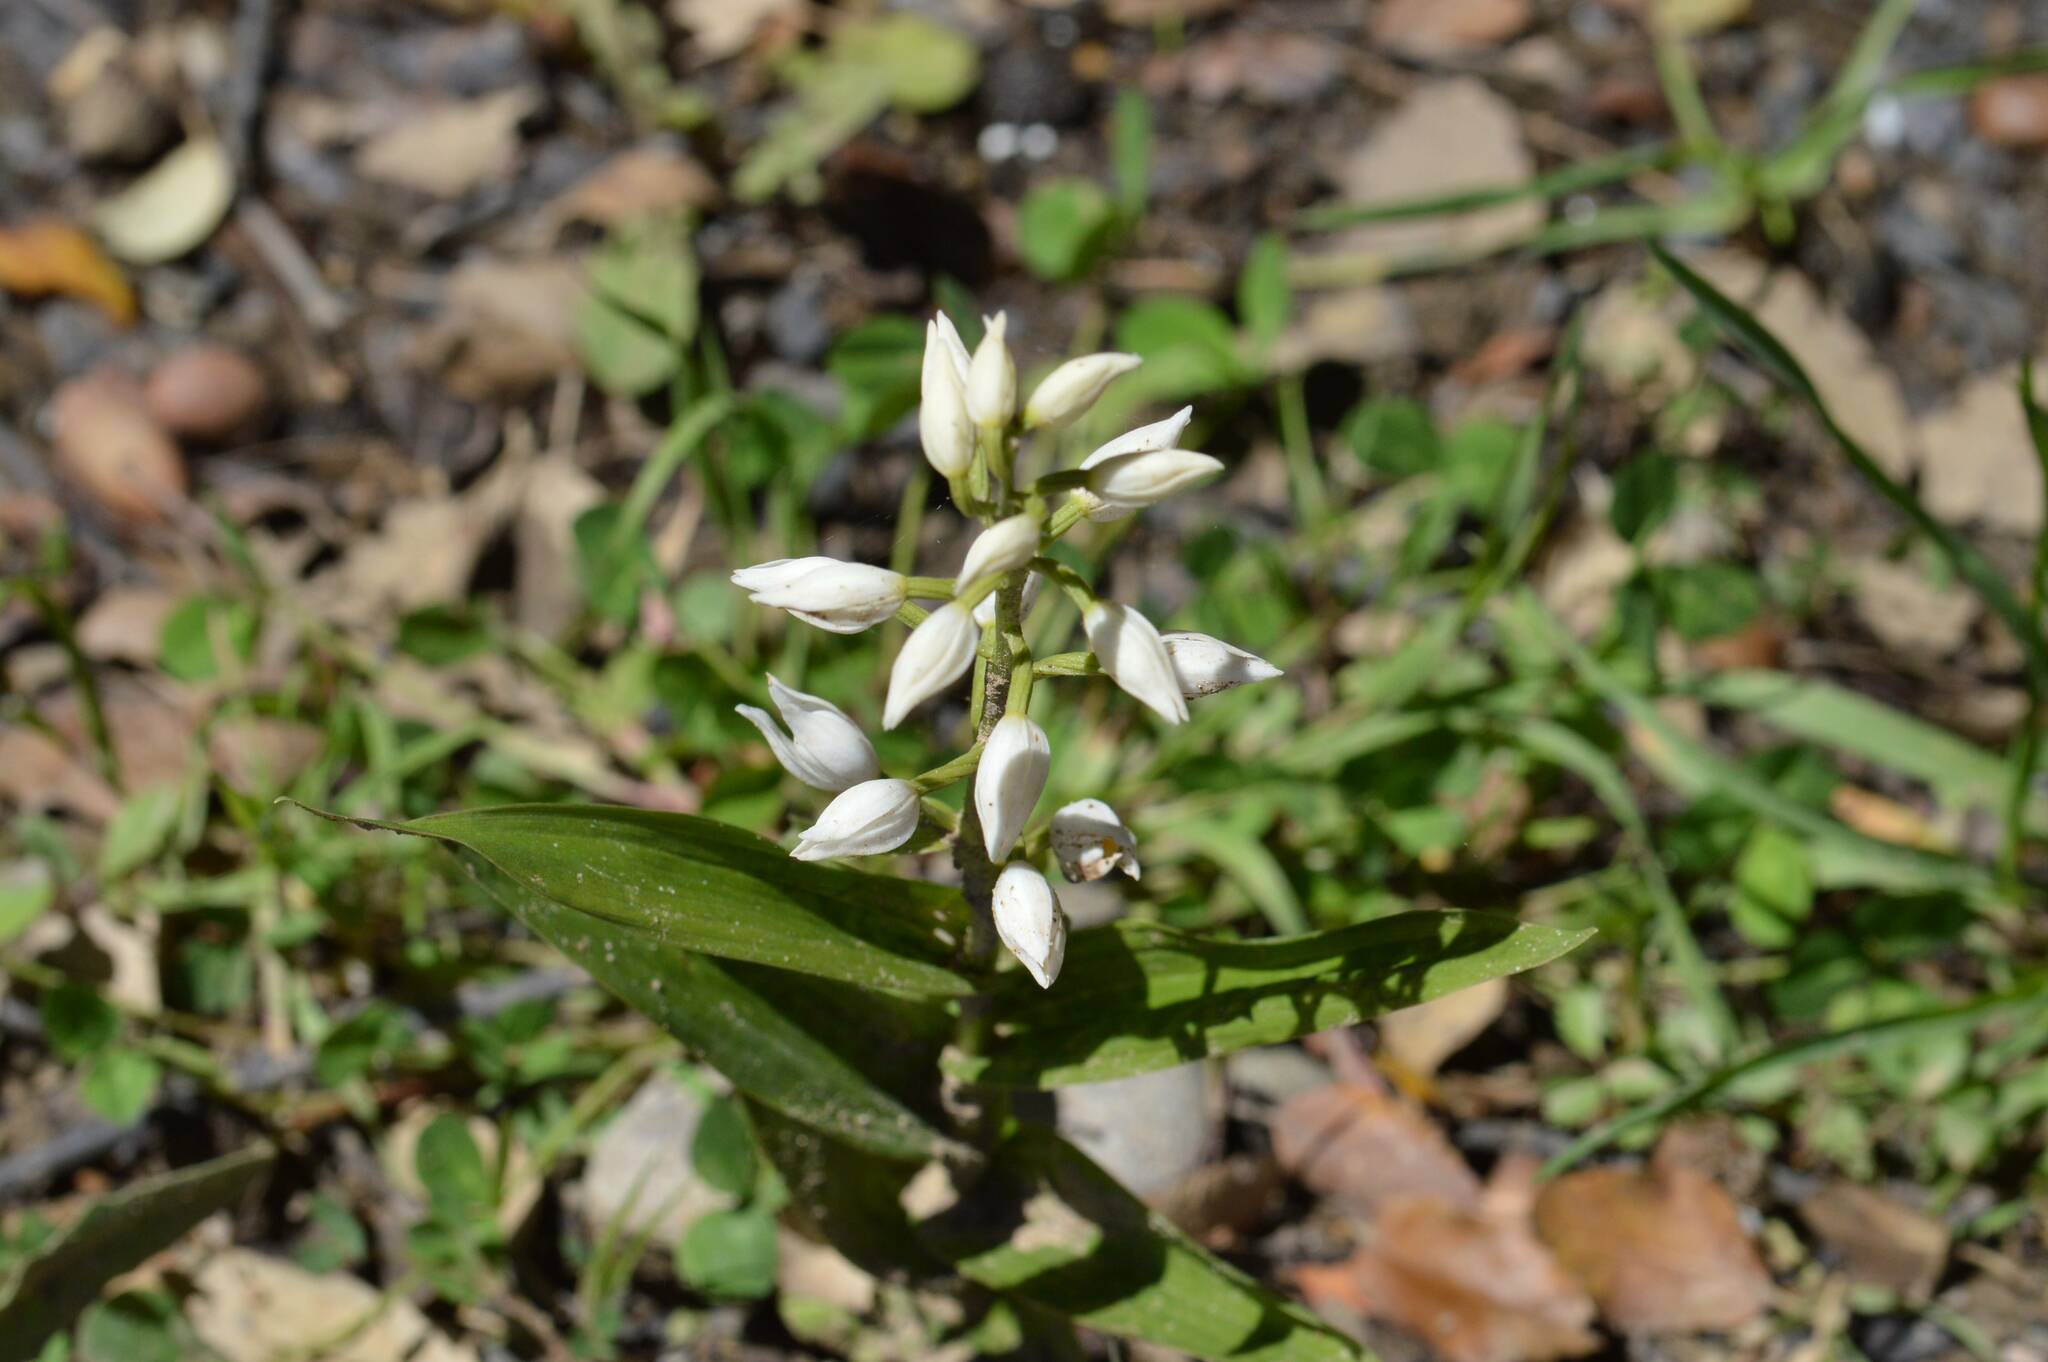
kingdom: Plantae
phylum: Tracheophyta
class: Liliopsida
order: Asparagales
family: Orchidaceae
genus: Cephalanthera
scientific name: Cephalanthera longifolia
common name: Narrow-leaved helleborine
